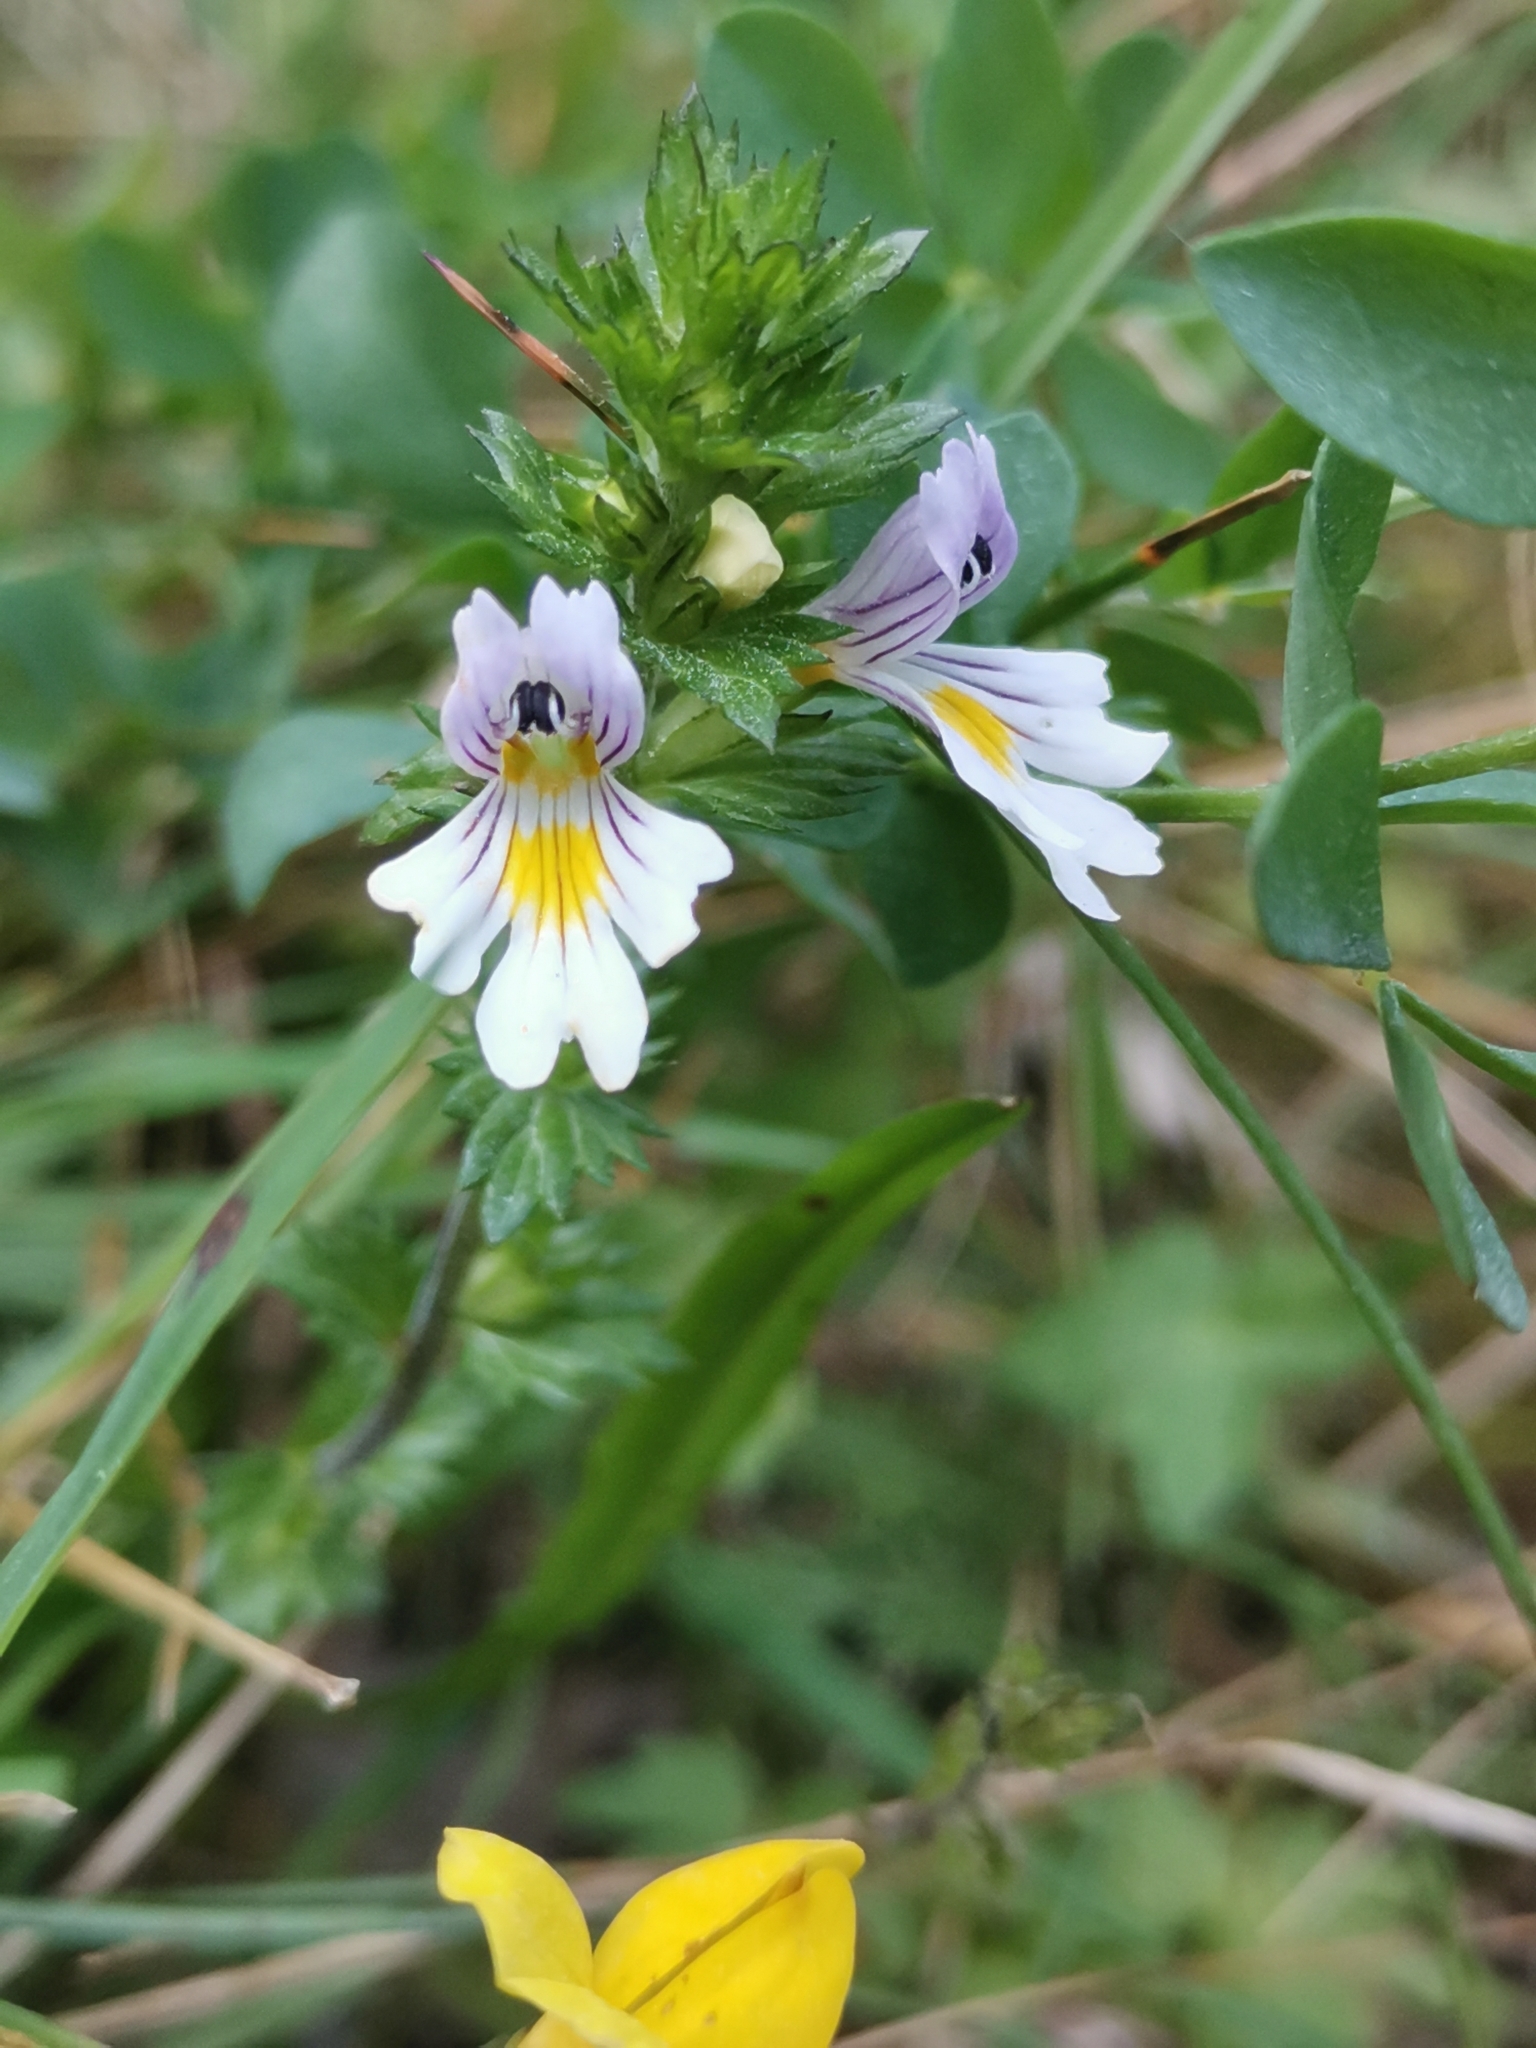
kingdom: Plantae
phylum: Tracheophyta
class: Magnoliopsida
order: Lamiales
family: Orobanchaceae
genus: Euphrasia
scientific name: Euphrasia officinalis
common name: Eyebright
